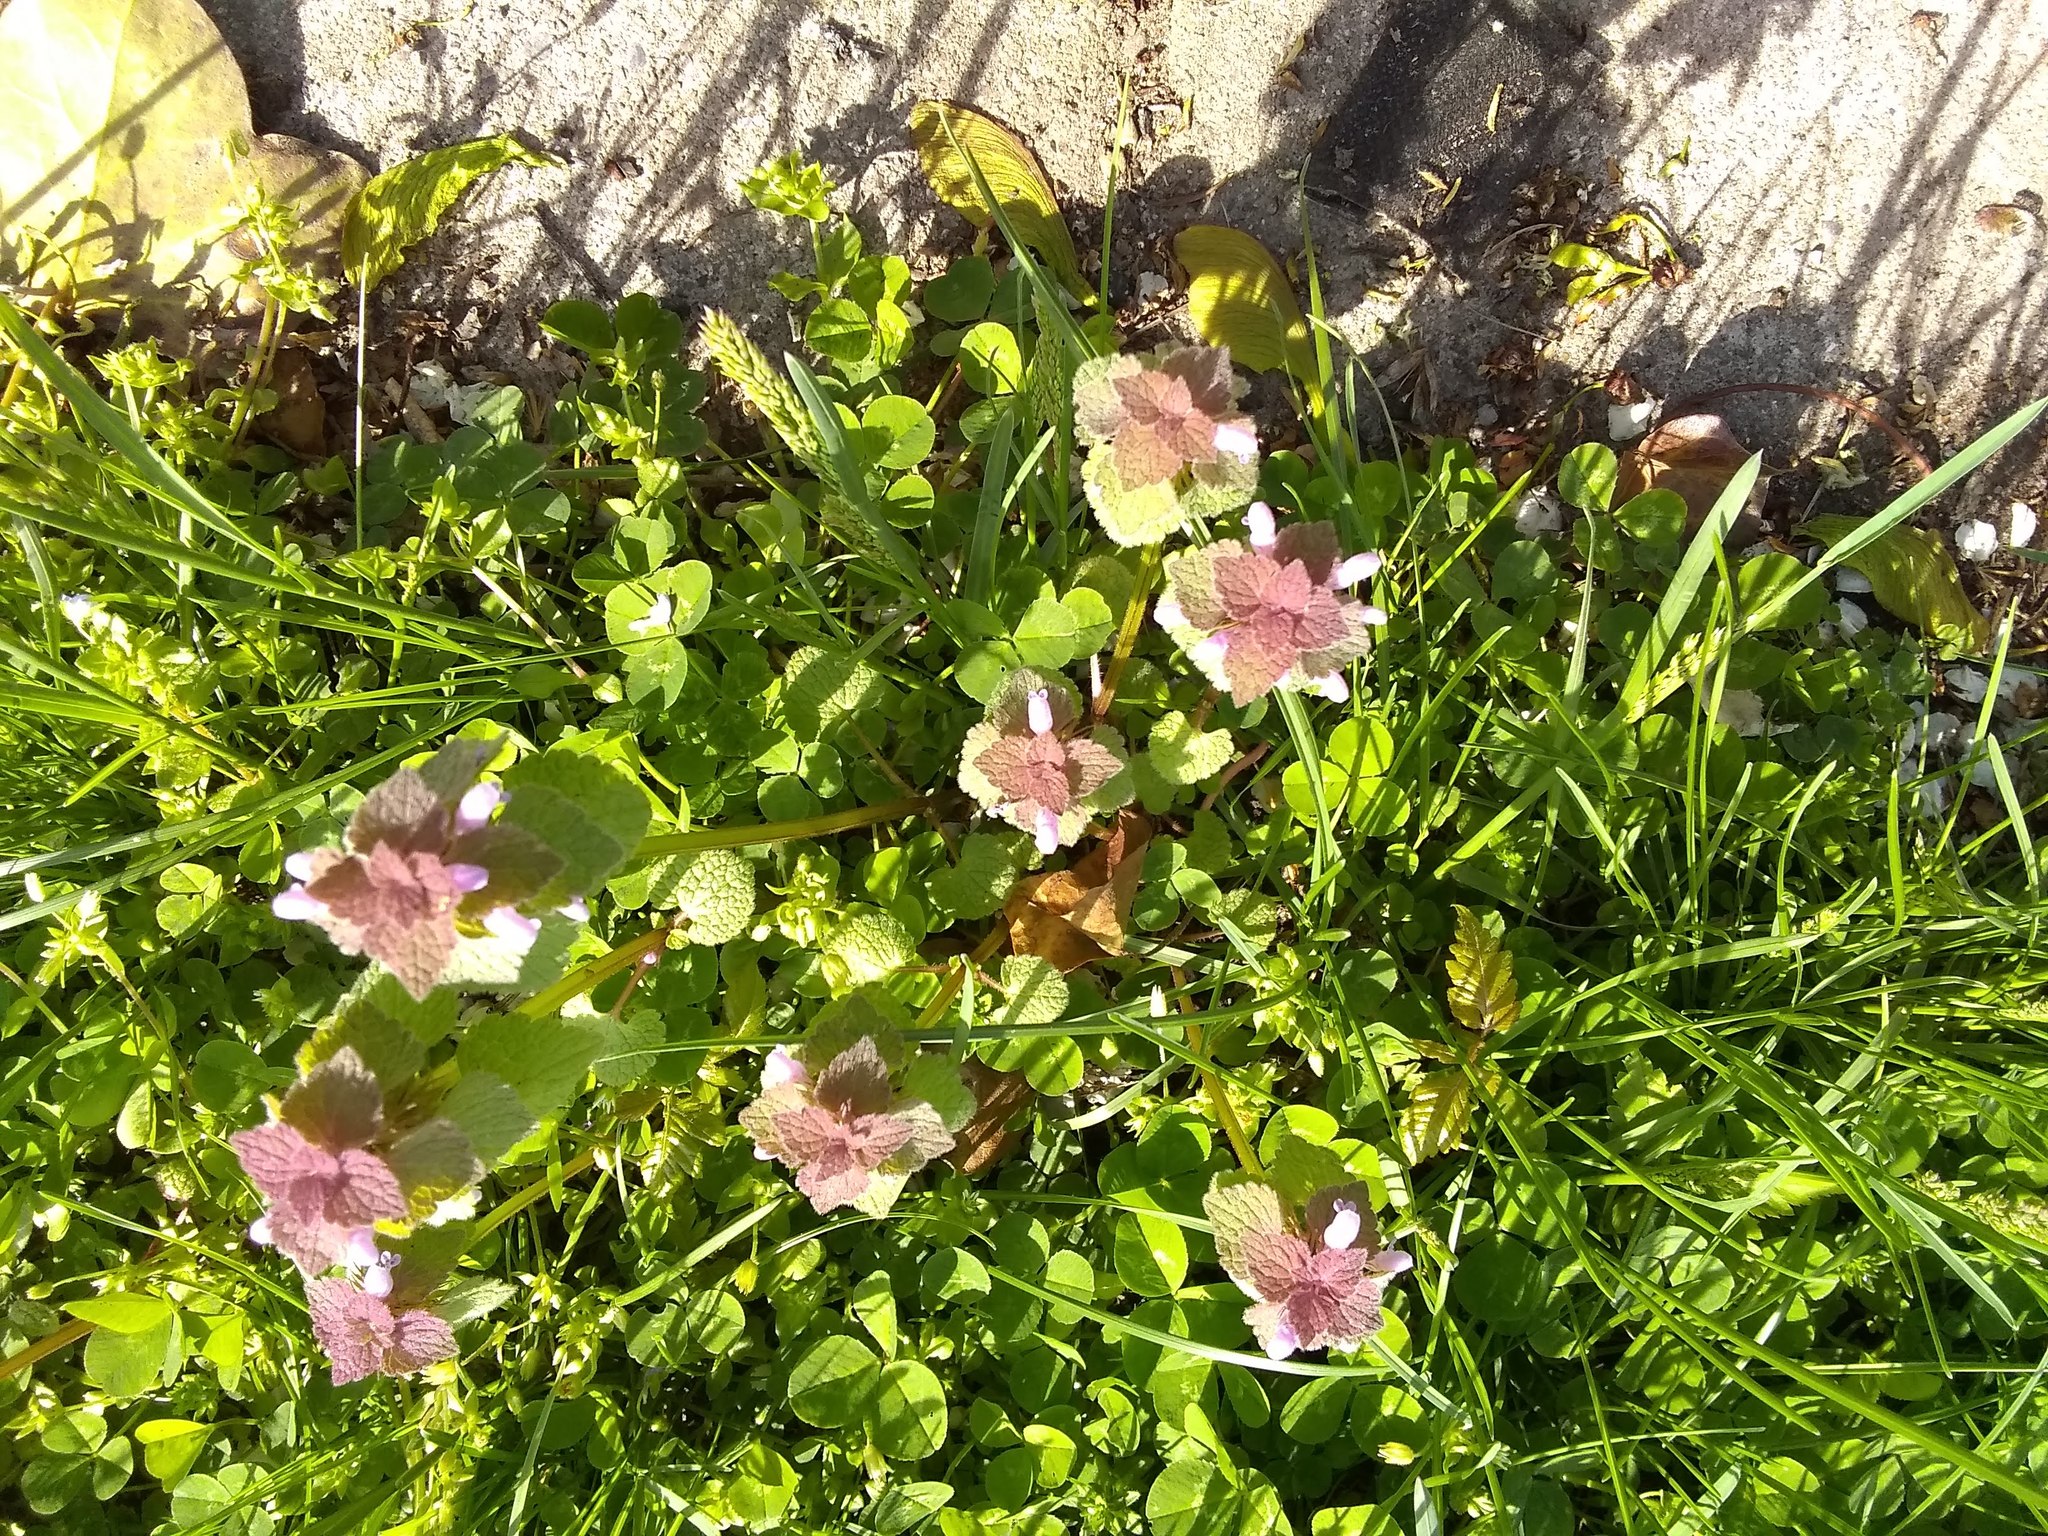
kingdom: Plantae
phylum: Tracheophyta
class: Magnoliopsida
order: Lamiales
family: Lamiaceae
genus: Lamium
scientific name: Lamium purpureum
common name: Red dead-nettle
